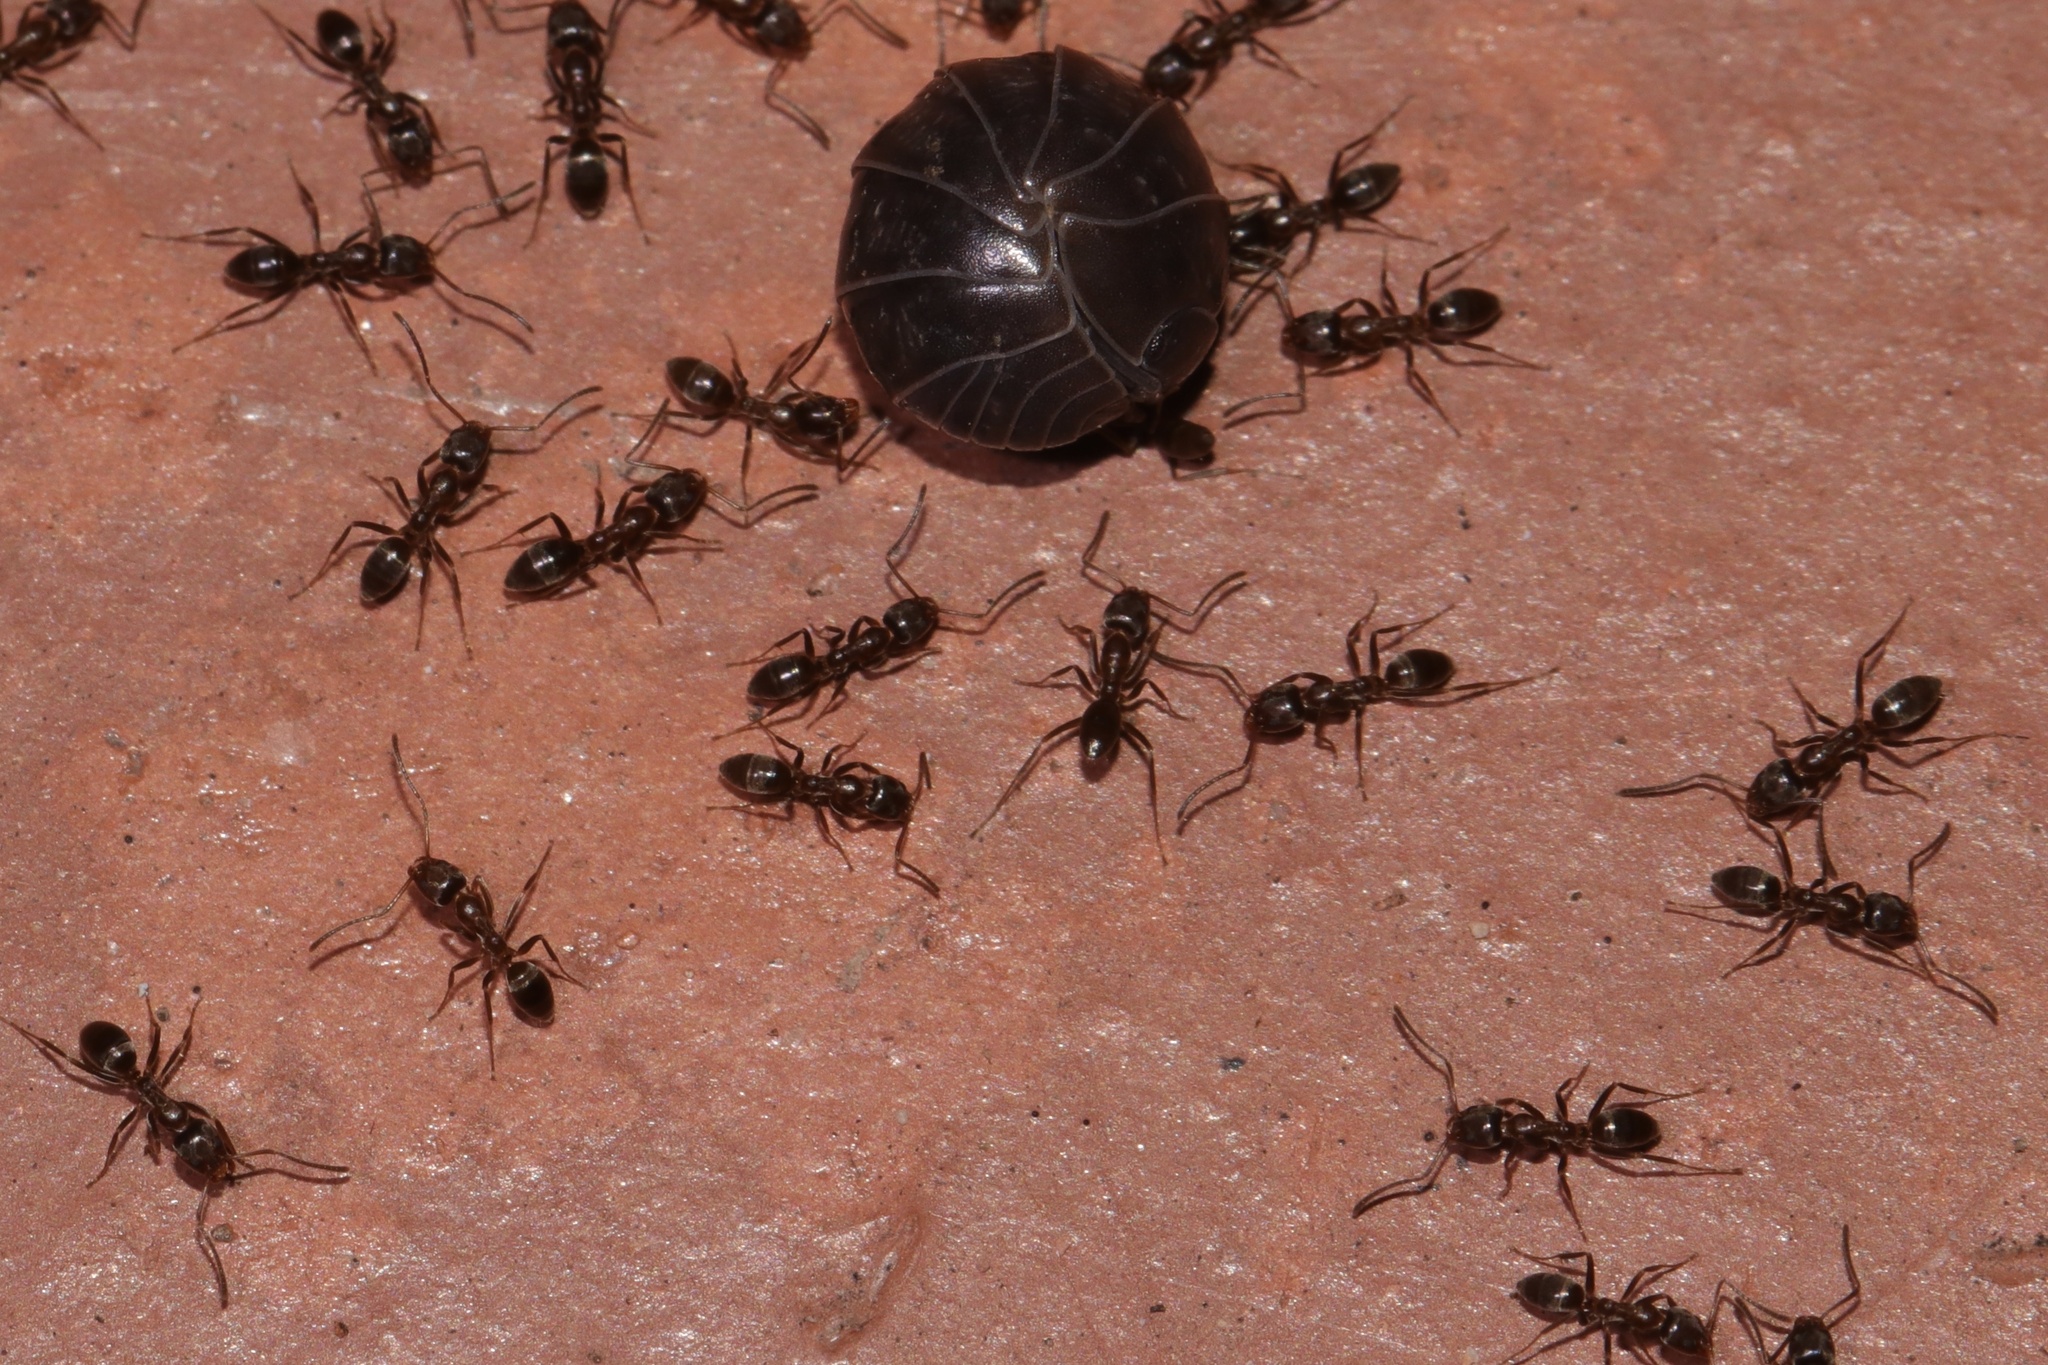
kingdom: Animalia
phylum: Arthropoda
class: Malacostraca
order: Isopoda
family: Armadillidiidae
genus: Armadillidium
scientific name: Armadillidium vulgare
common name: Common pill woodlouse
